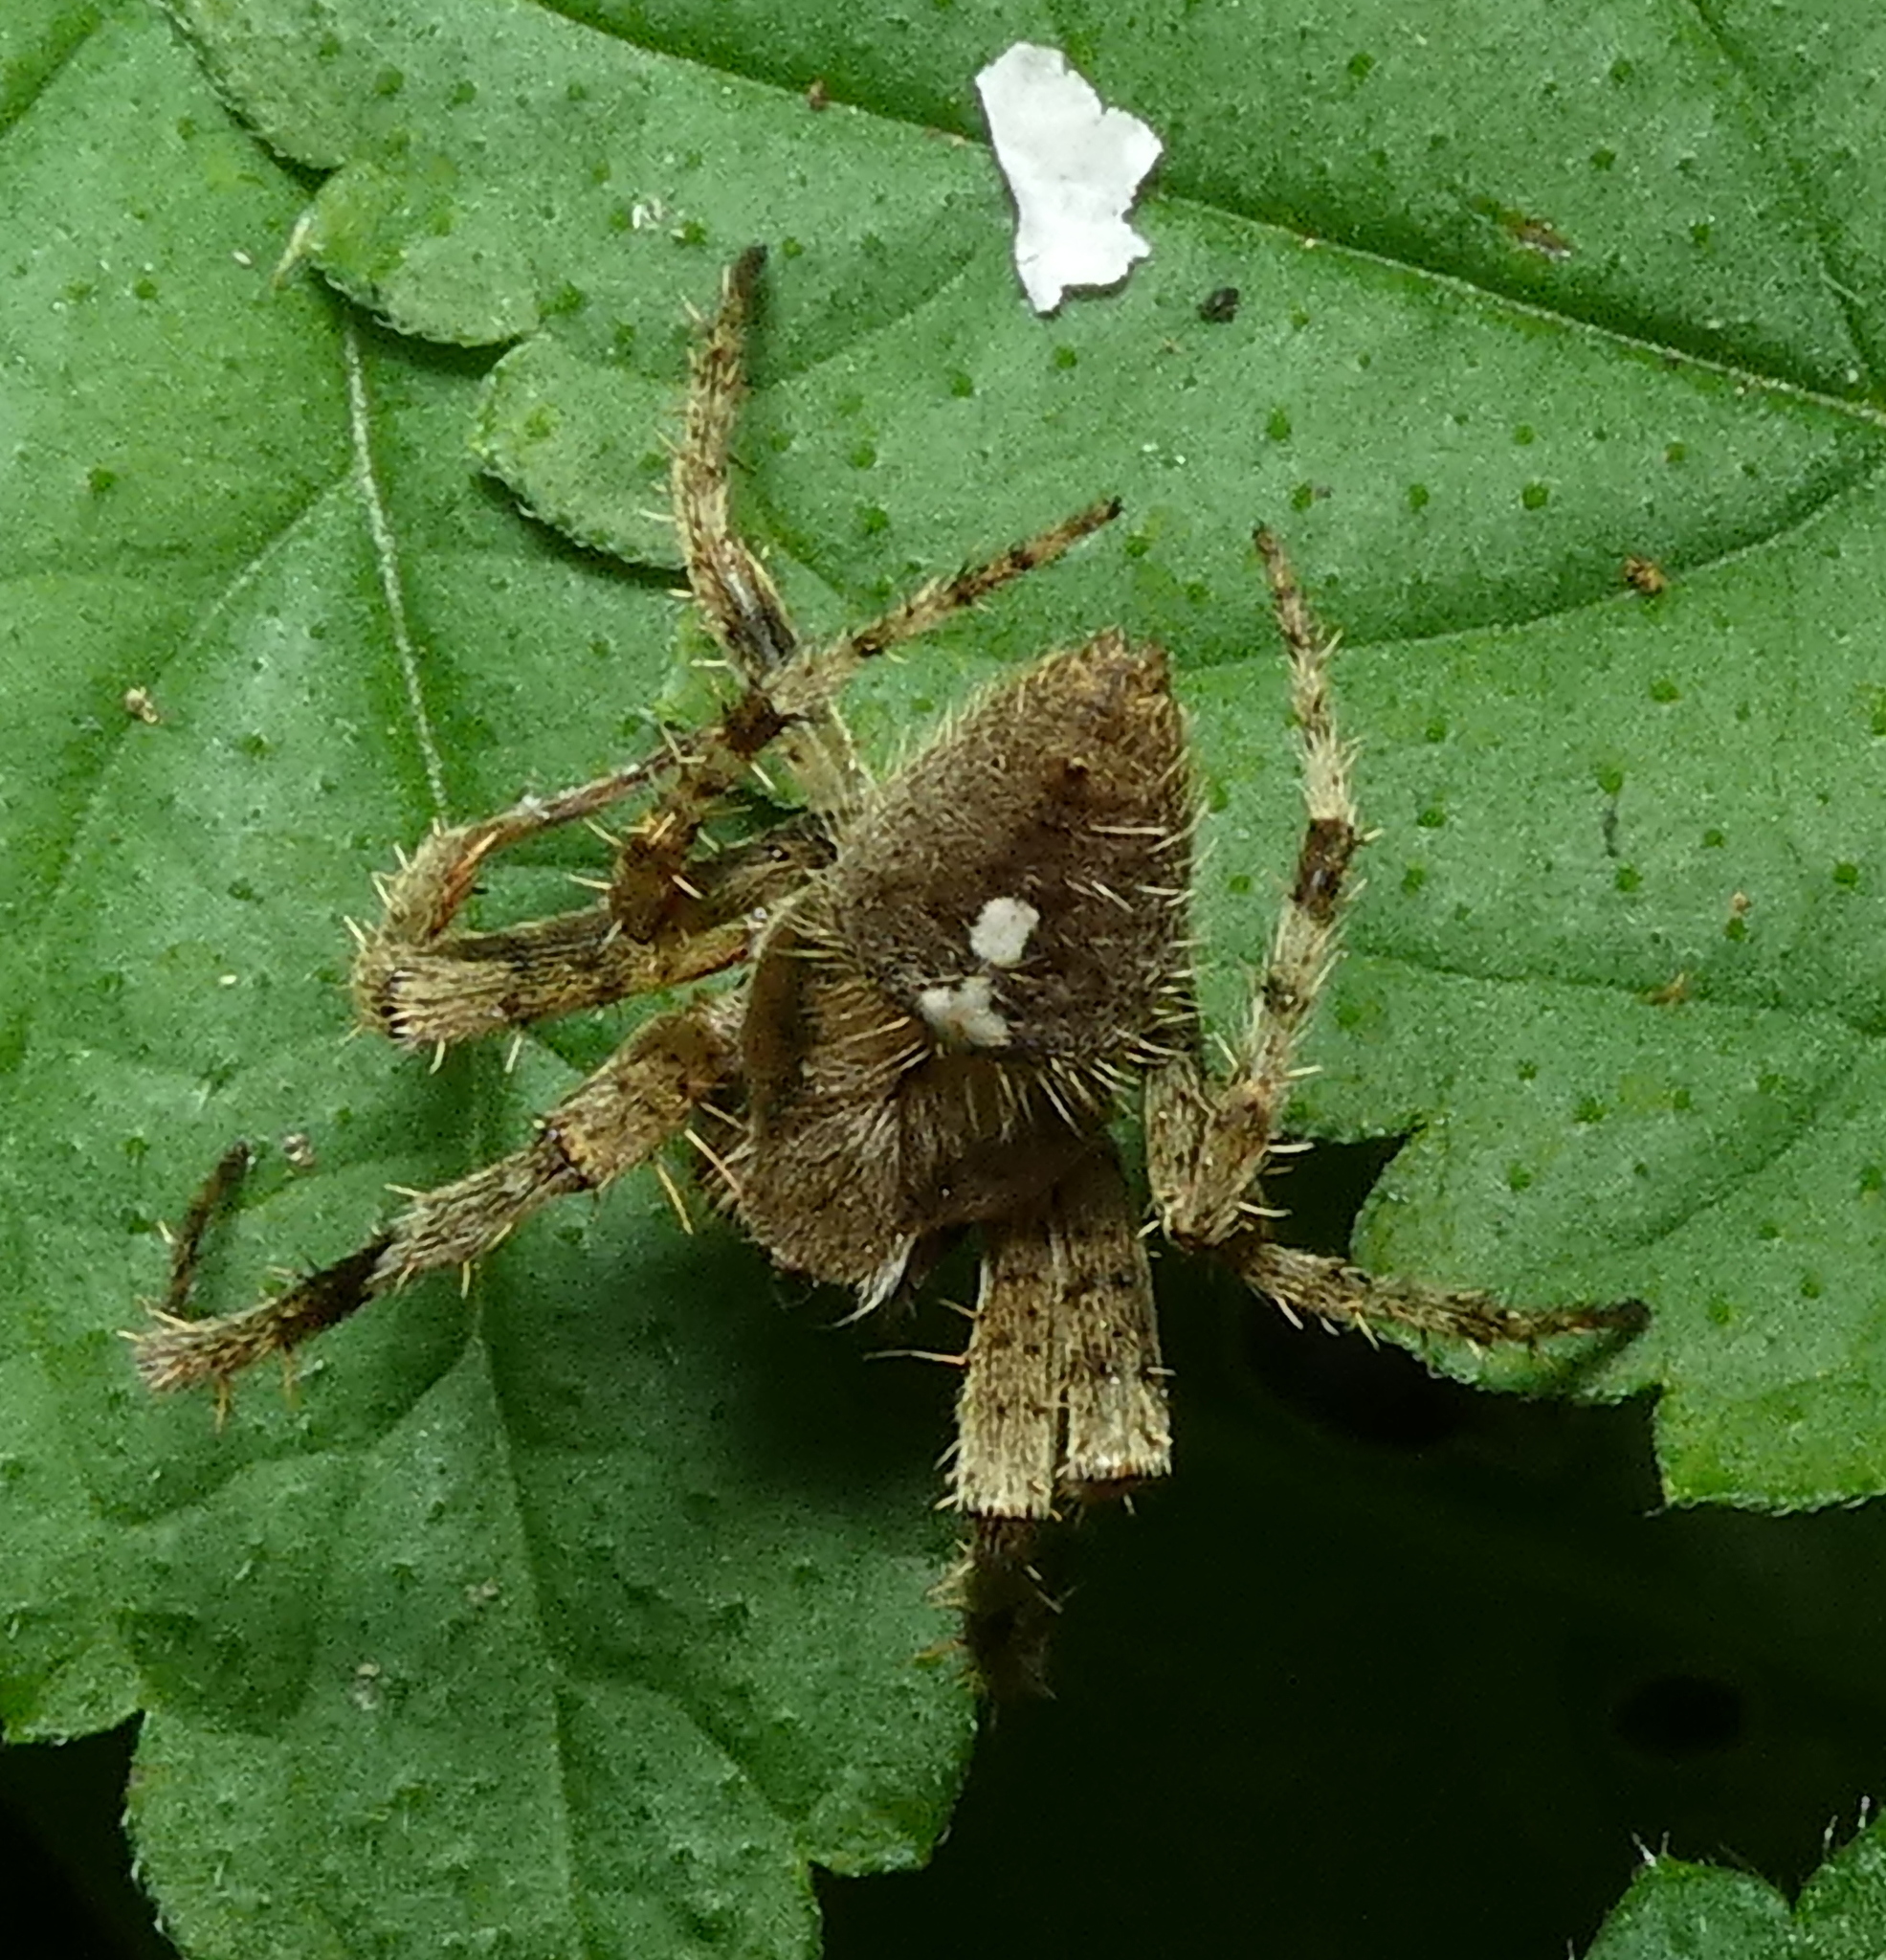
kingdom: Animalia
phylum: Arthropoda
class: Arachnida
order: Araneae
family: Araneidae
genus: Eriophora
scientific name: Eriophora edax
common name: Orb weavers
